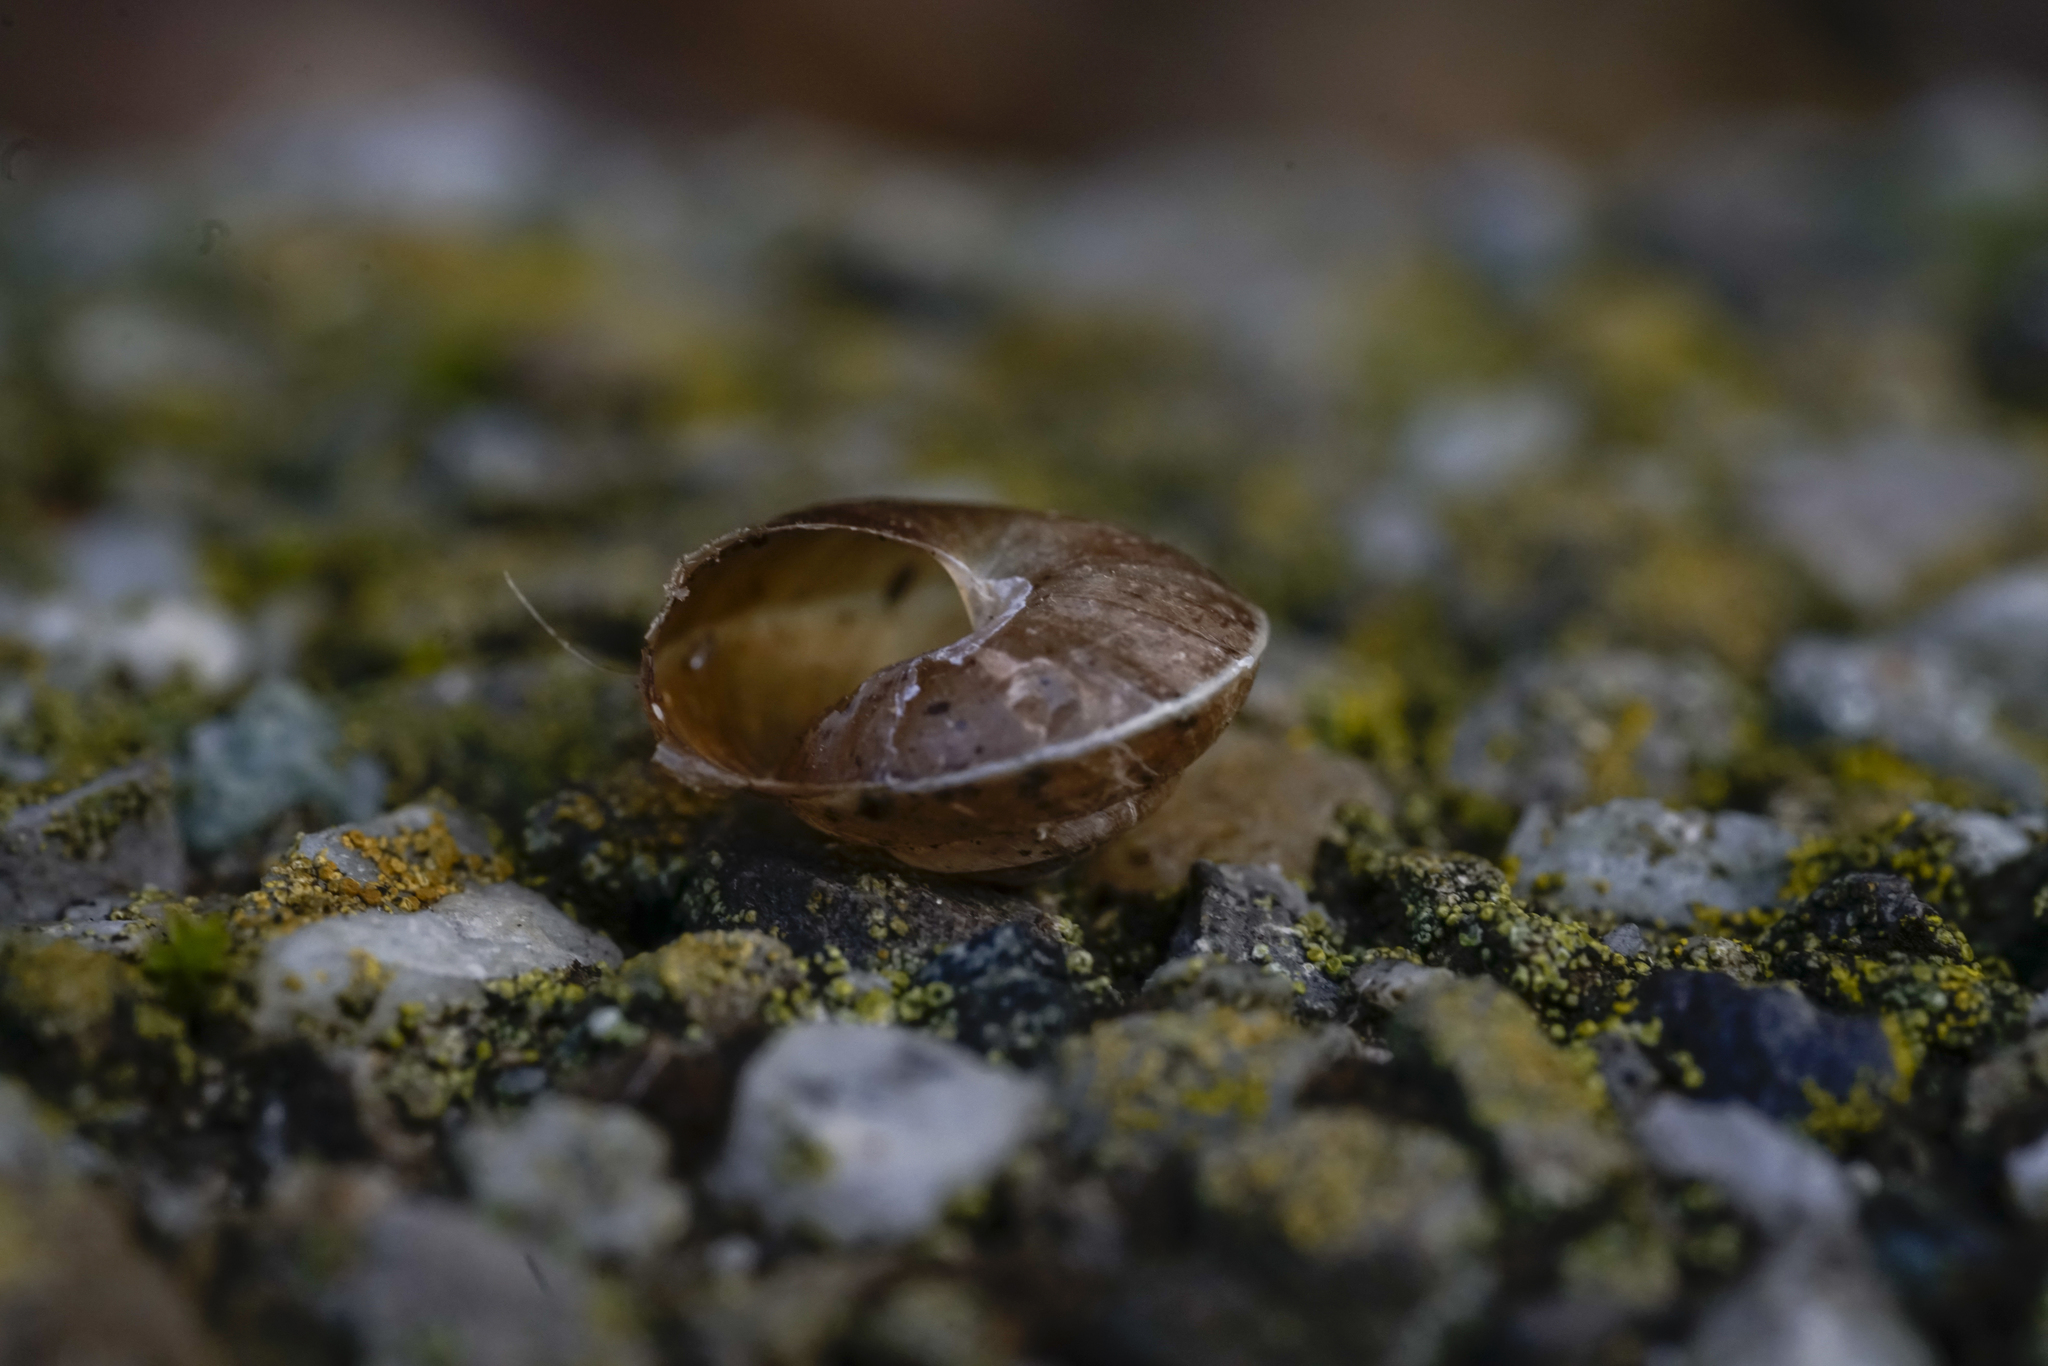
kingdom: Animalia
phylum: Mollusca
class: Gastropoda
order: Stylommatophora
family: Hygromiidae
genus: Hygromia
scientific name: Hygromia cinctella
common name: Girdled snail
